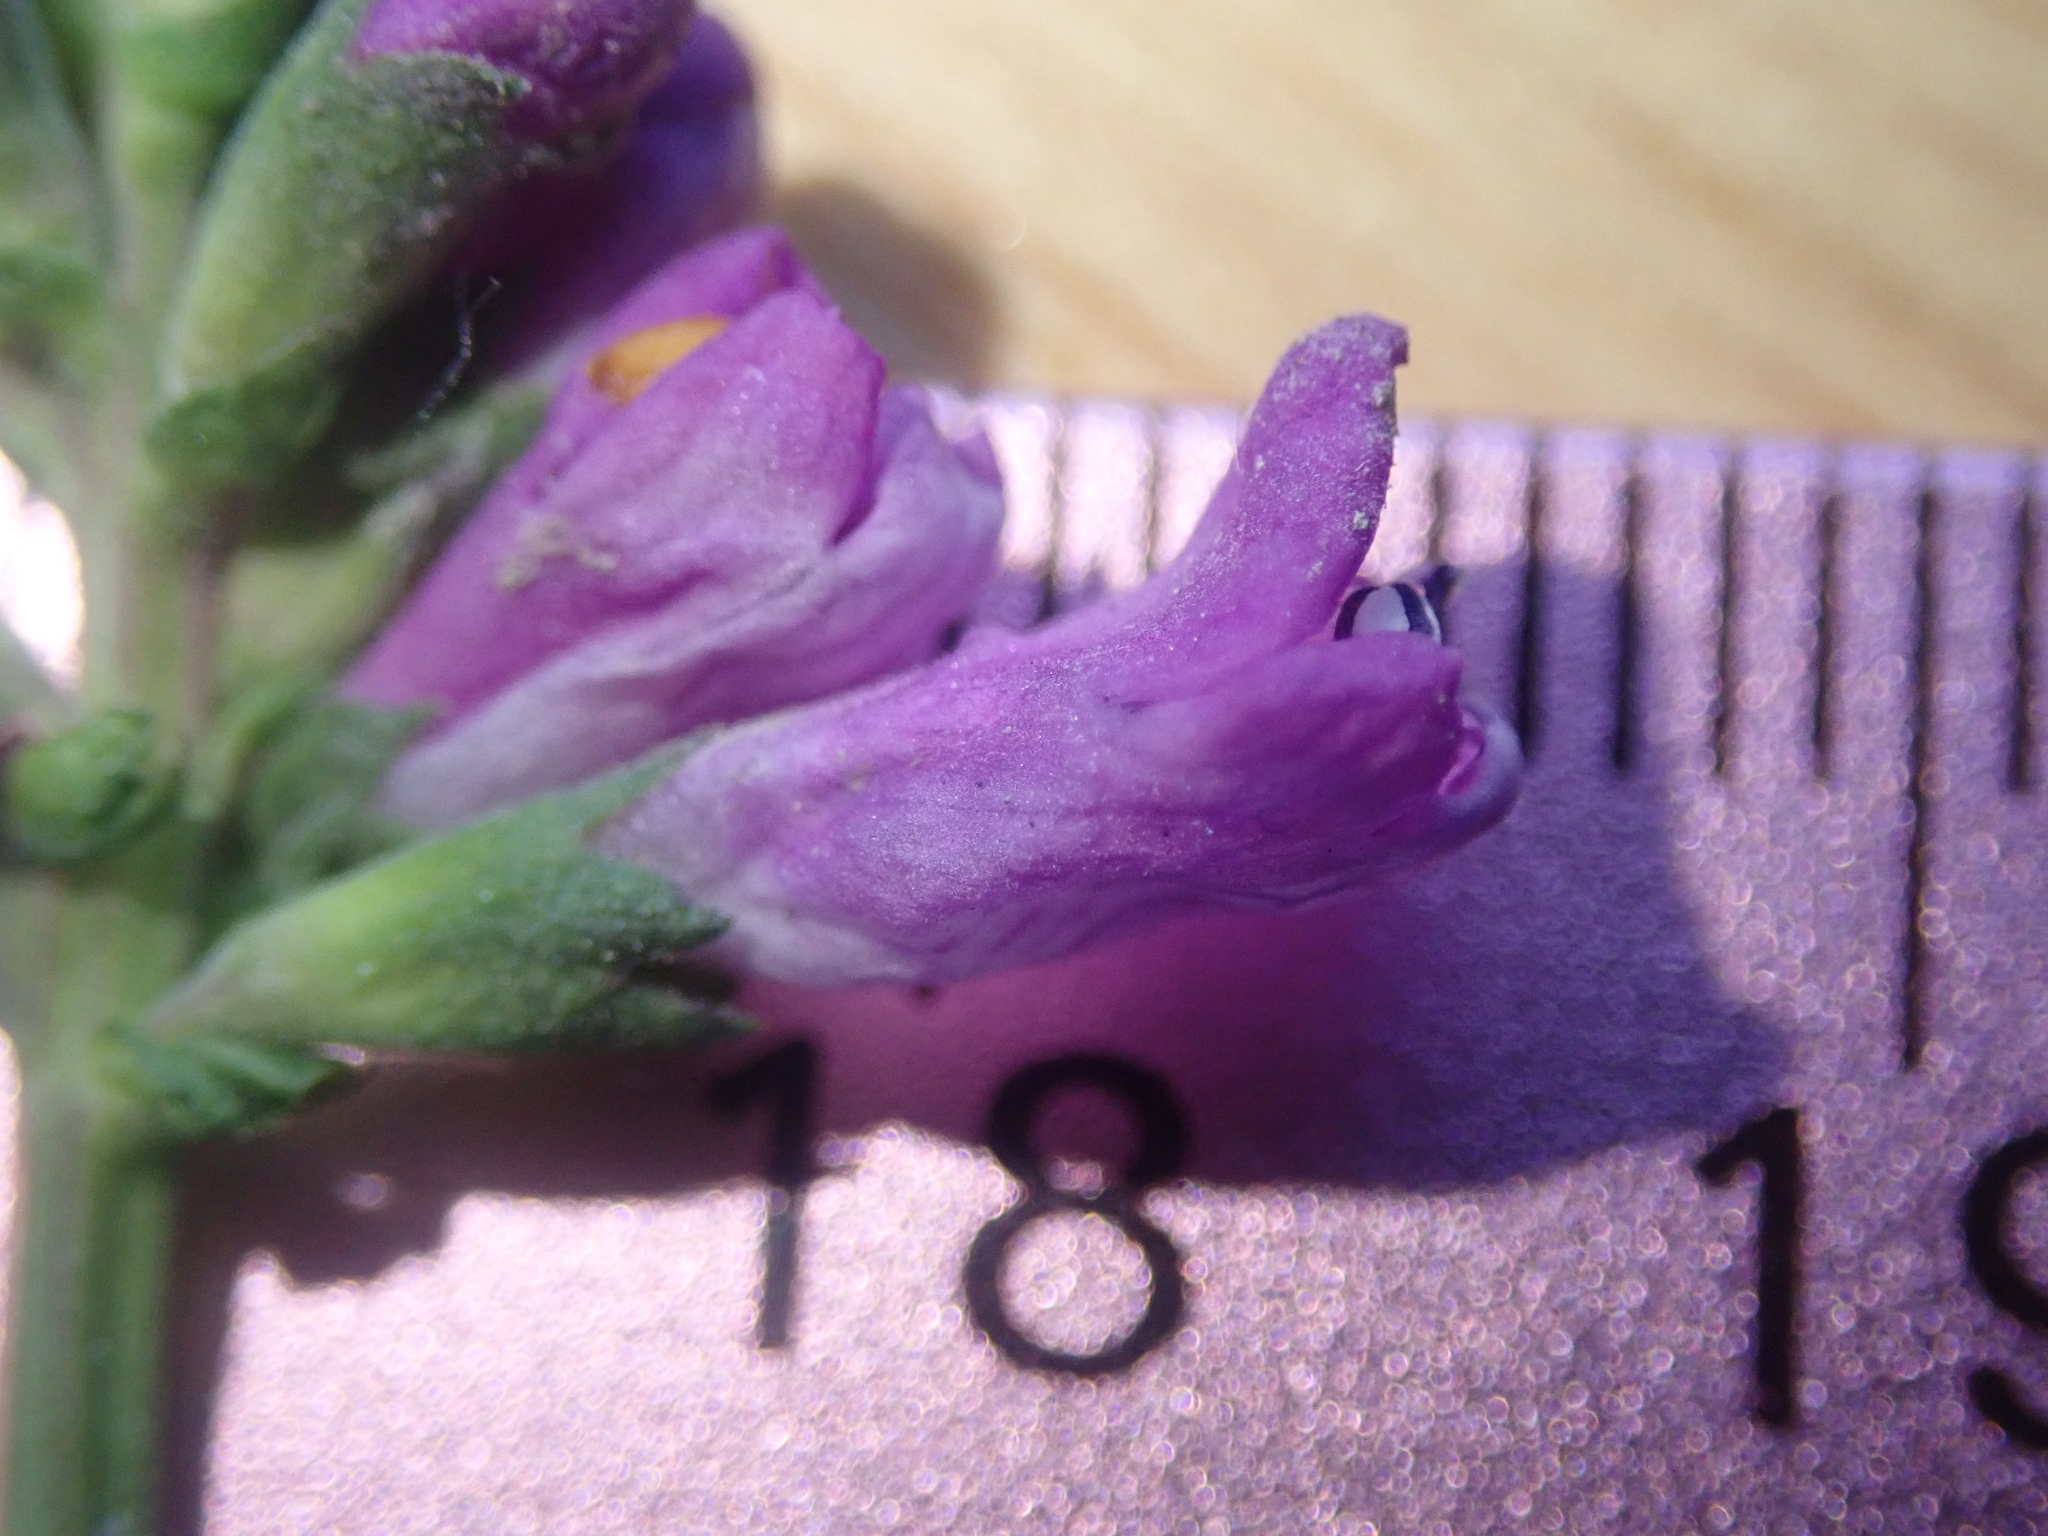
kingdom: Plantae
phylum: Tracheophyta
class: Magnoliopsida
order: Lamiales
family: Lamiaceae
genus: Physostegia
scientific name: Physostegia parviflora
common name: American dragonhead
